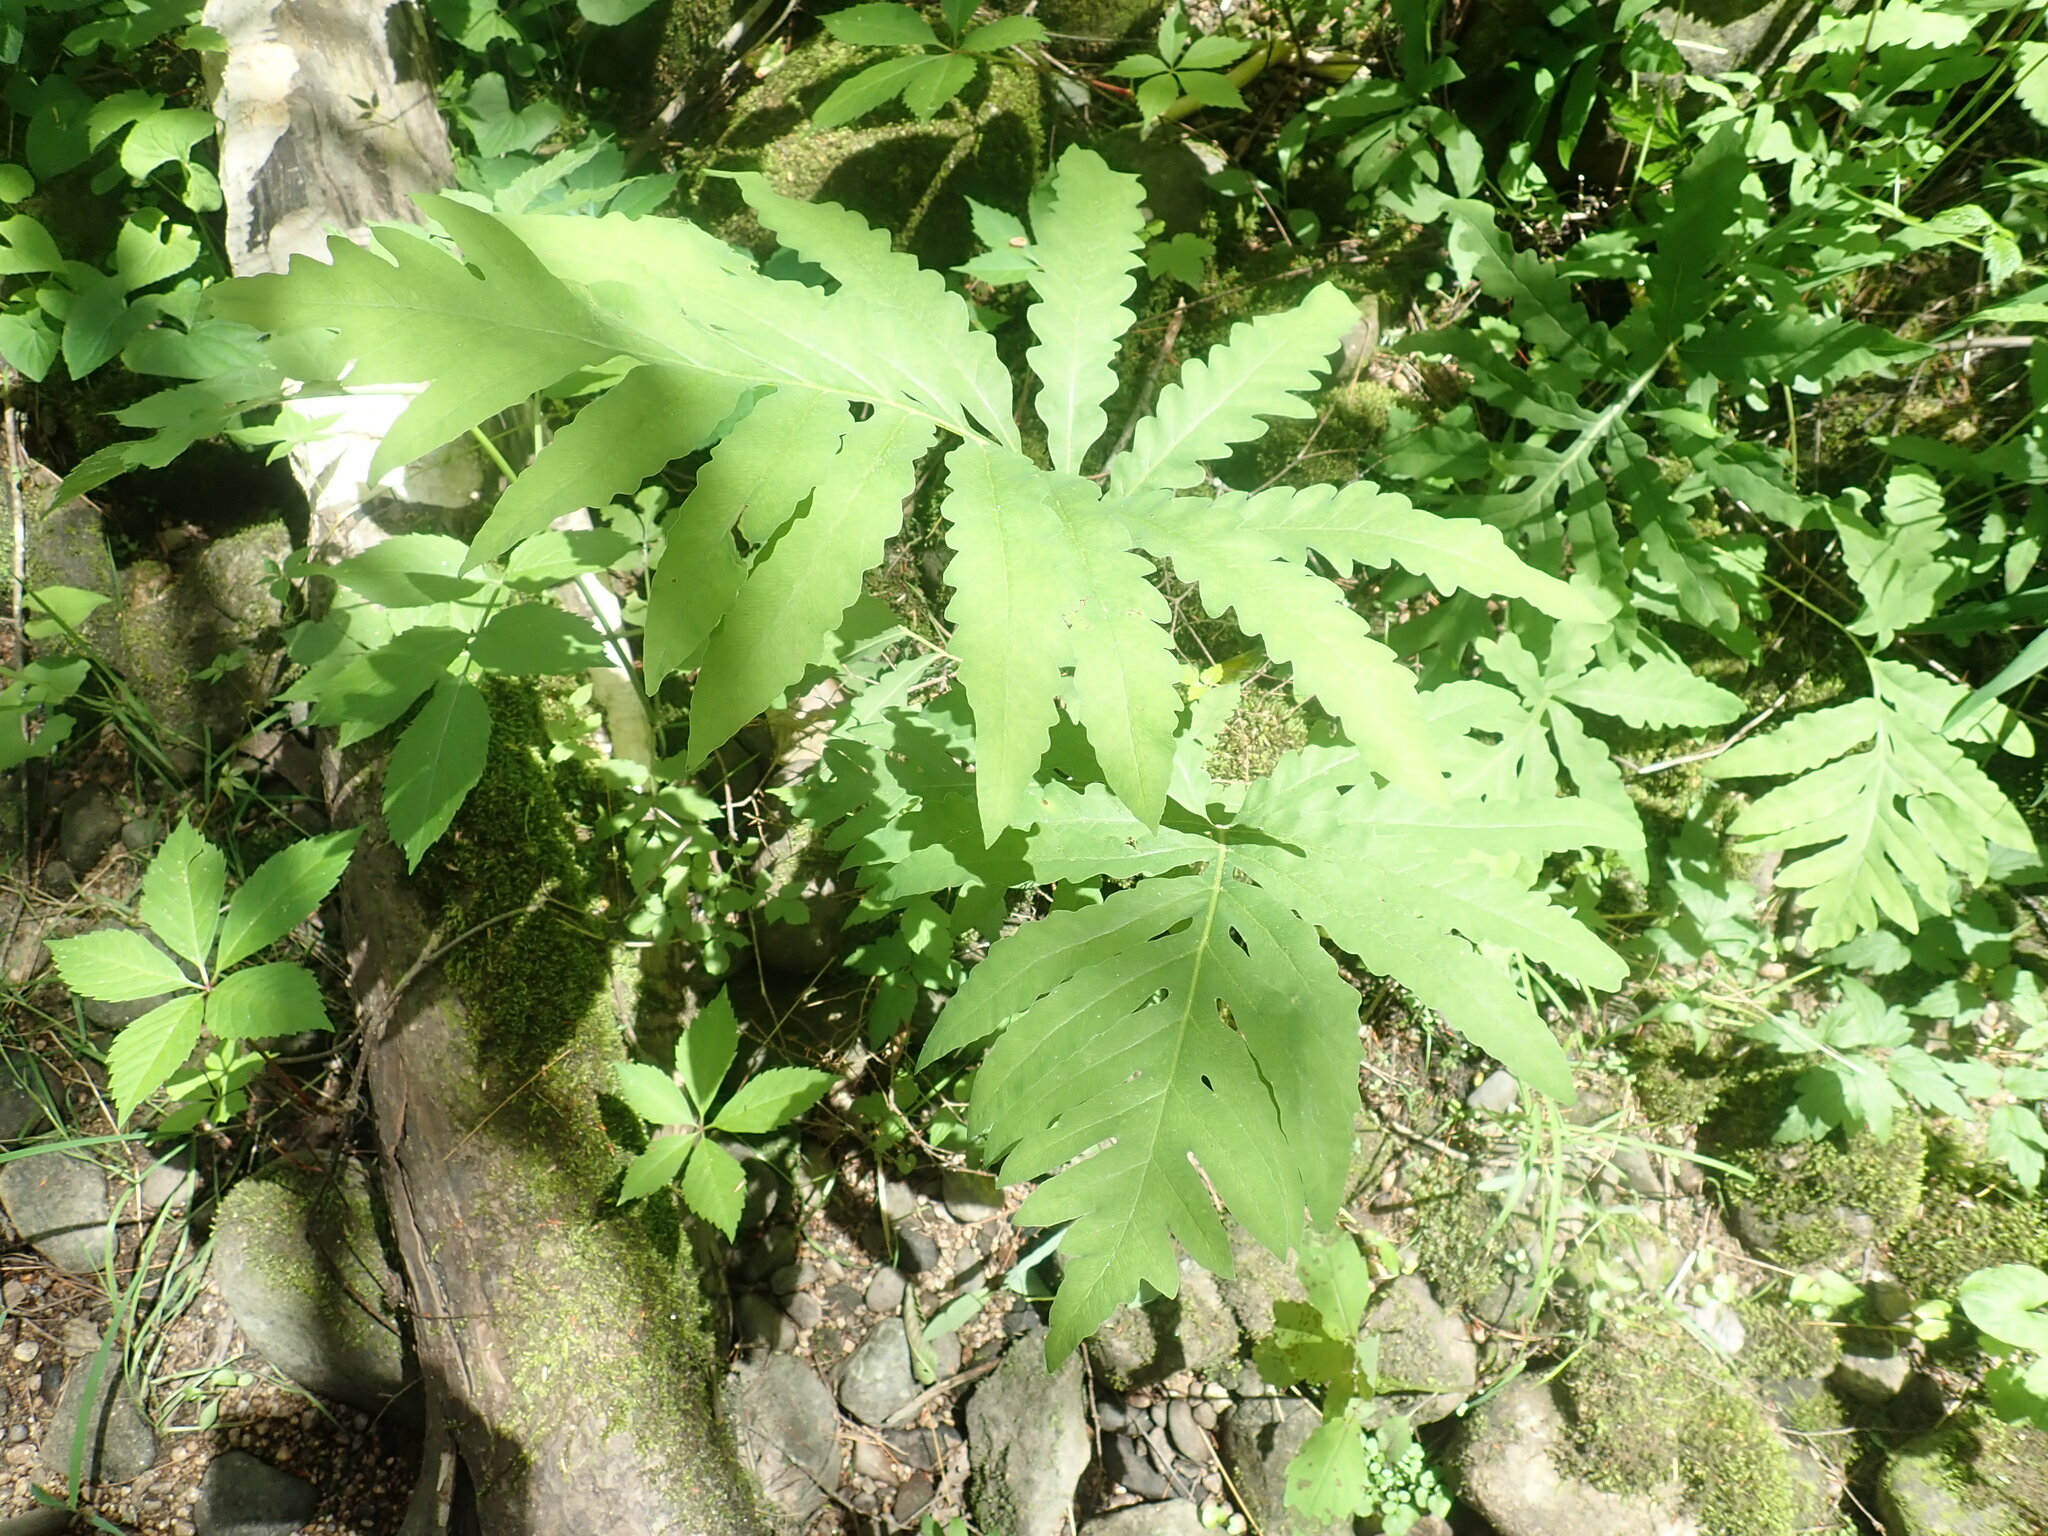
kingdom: Plantae
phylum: Tracheophyta
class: Polypodiopsida
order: Polypodiales
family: Onocleaceae
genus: Onoclea
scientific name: Onoclea sensibilis
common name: Sensitive fern
